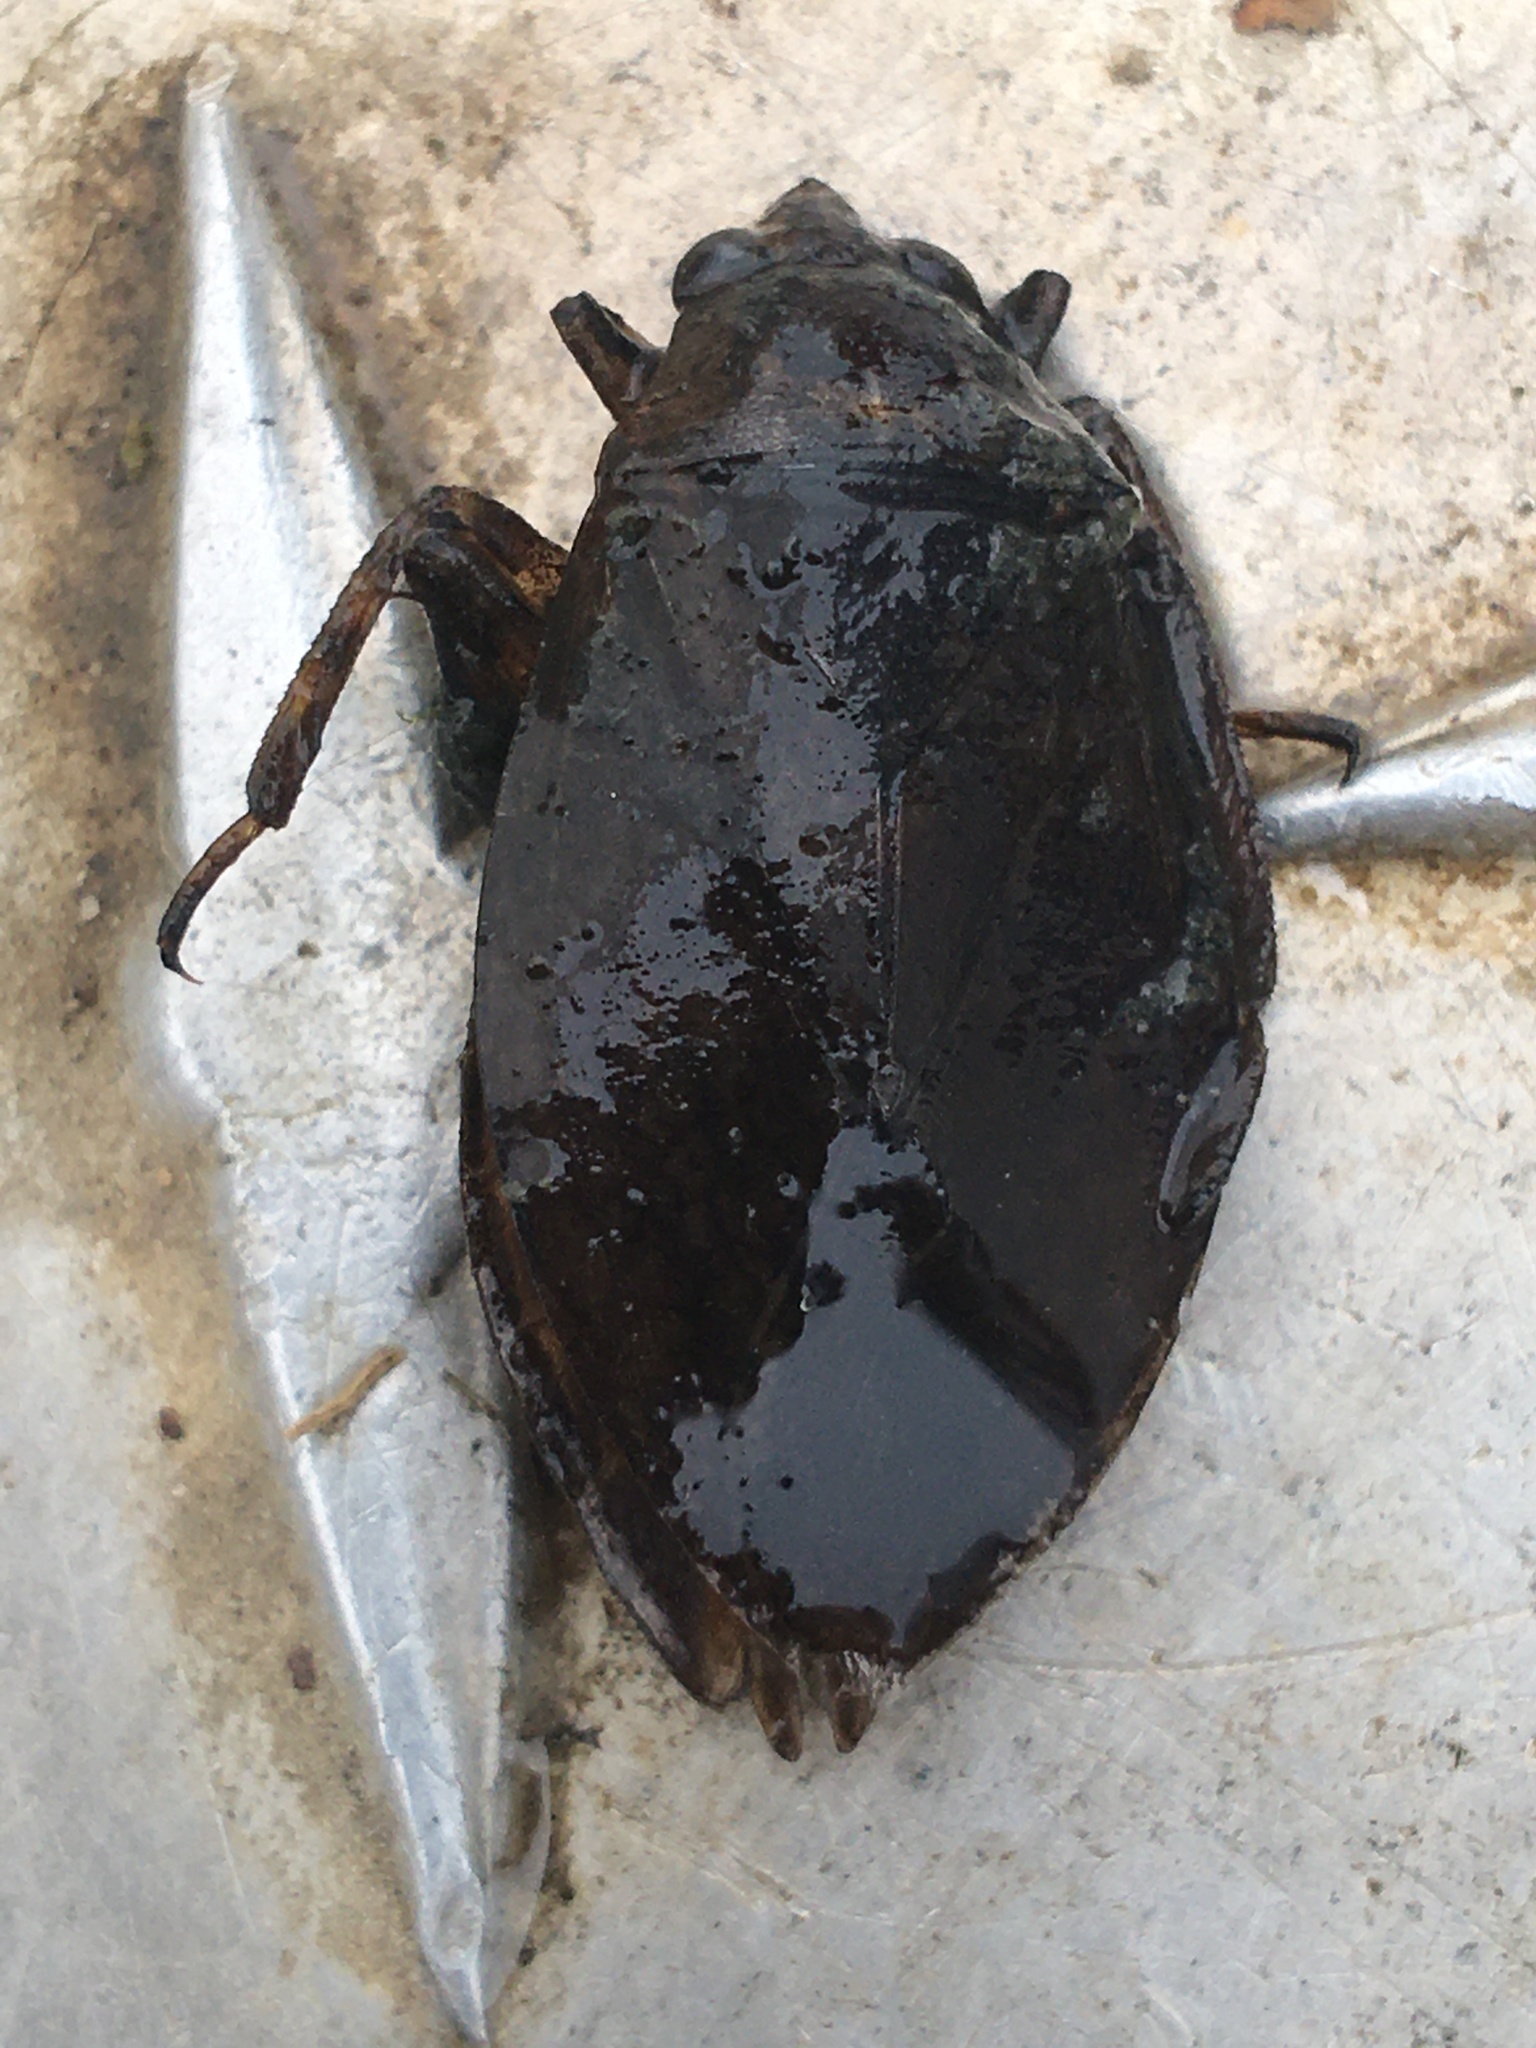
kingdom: Animalia
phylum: Arthropoda
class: Insecta
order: Hemiptera
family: Belostomatidae
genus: Belostoma
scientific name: Belostoma
